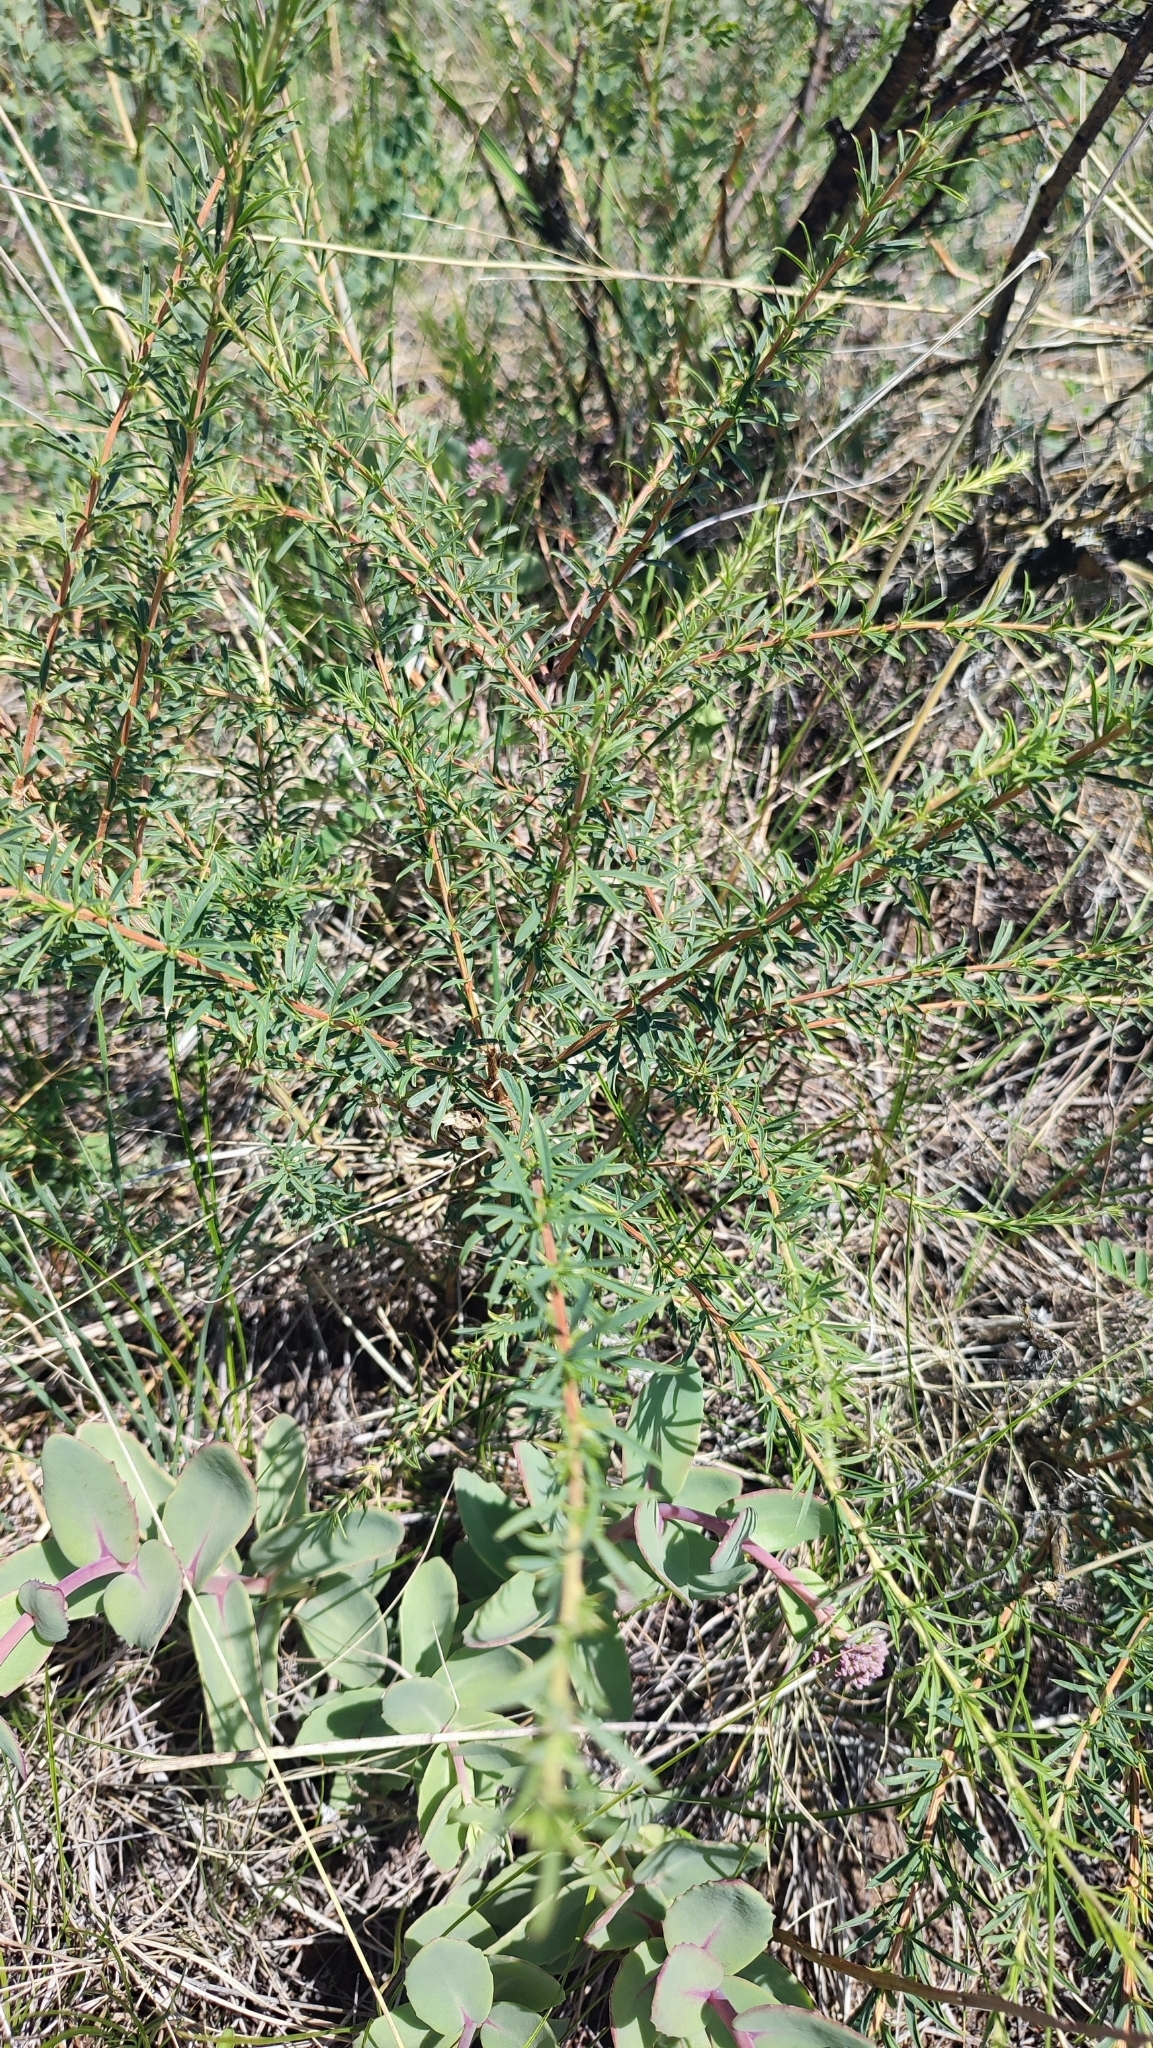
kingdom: Plantae
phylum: Tracheophyta
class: Magnoliopsida
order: Fabales
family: Fabaceae
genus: Caragana
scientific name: Caragana pygmaea
